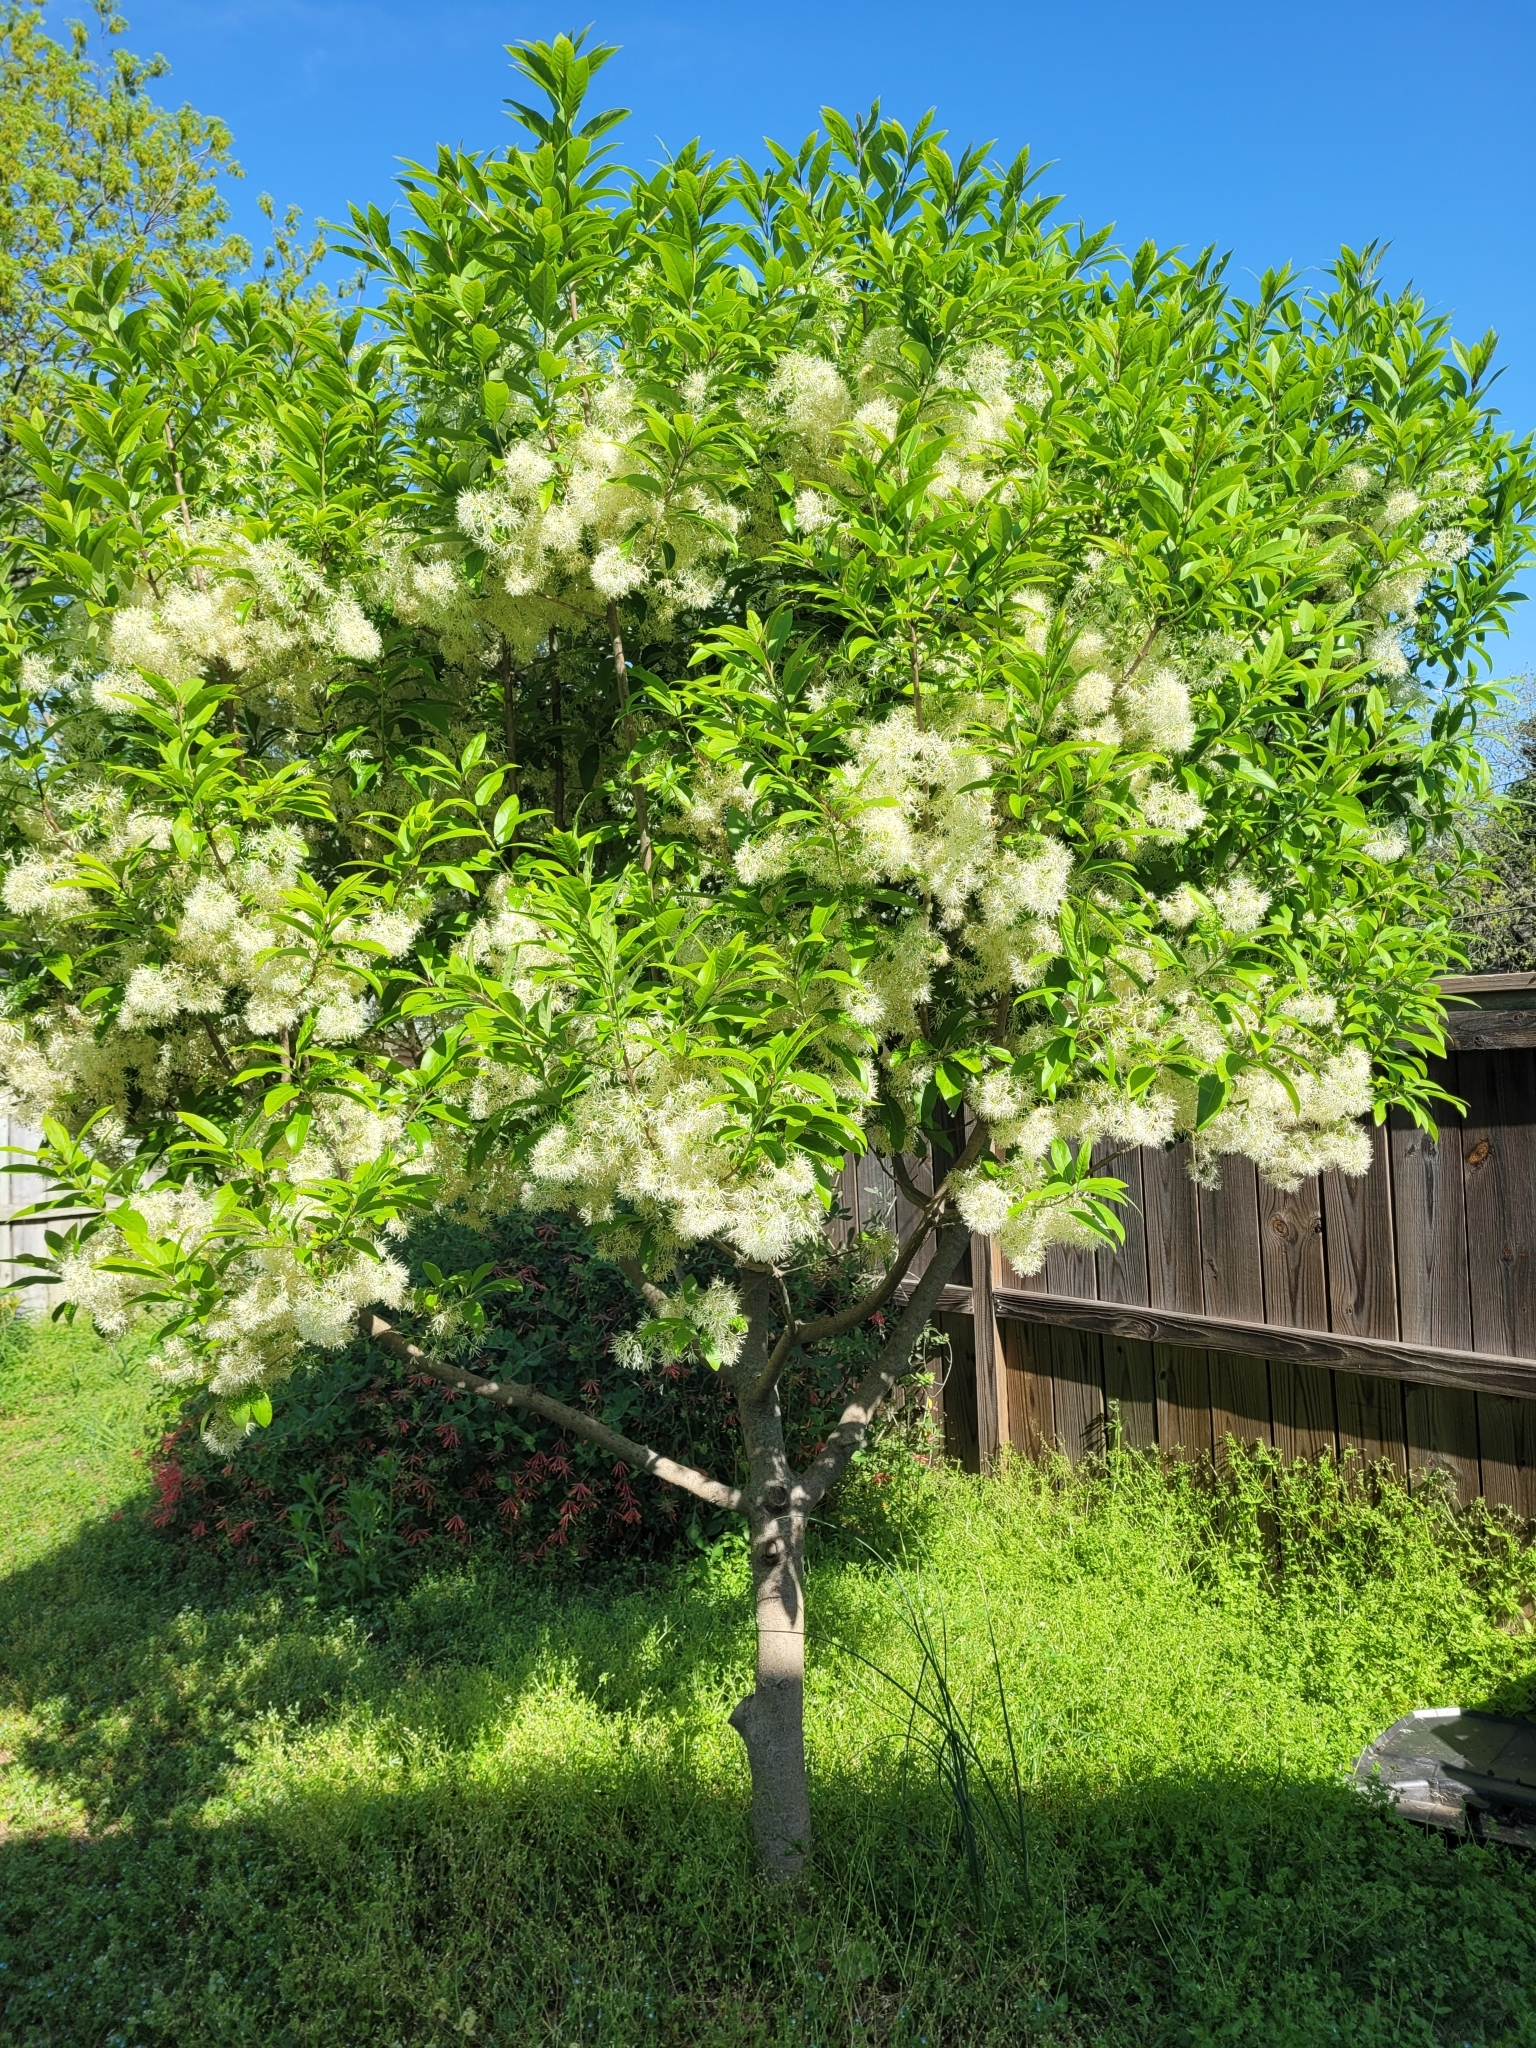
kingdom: Plantae
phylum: Tracheophyta
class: Magnoliopsida
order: Lamiales
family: Oleaceae
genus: Chionanthus
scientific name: Chionanthus virginicus
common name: American fringetree
